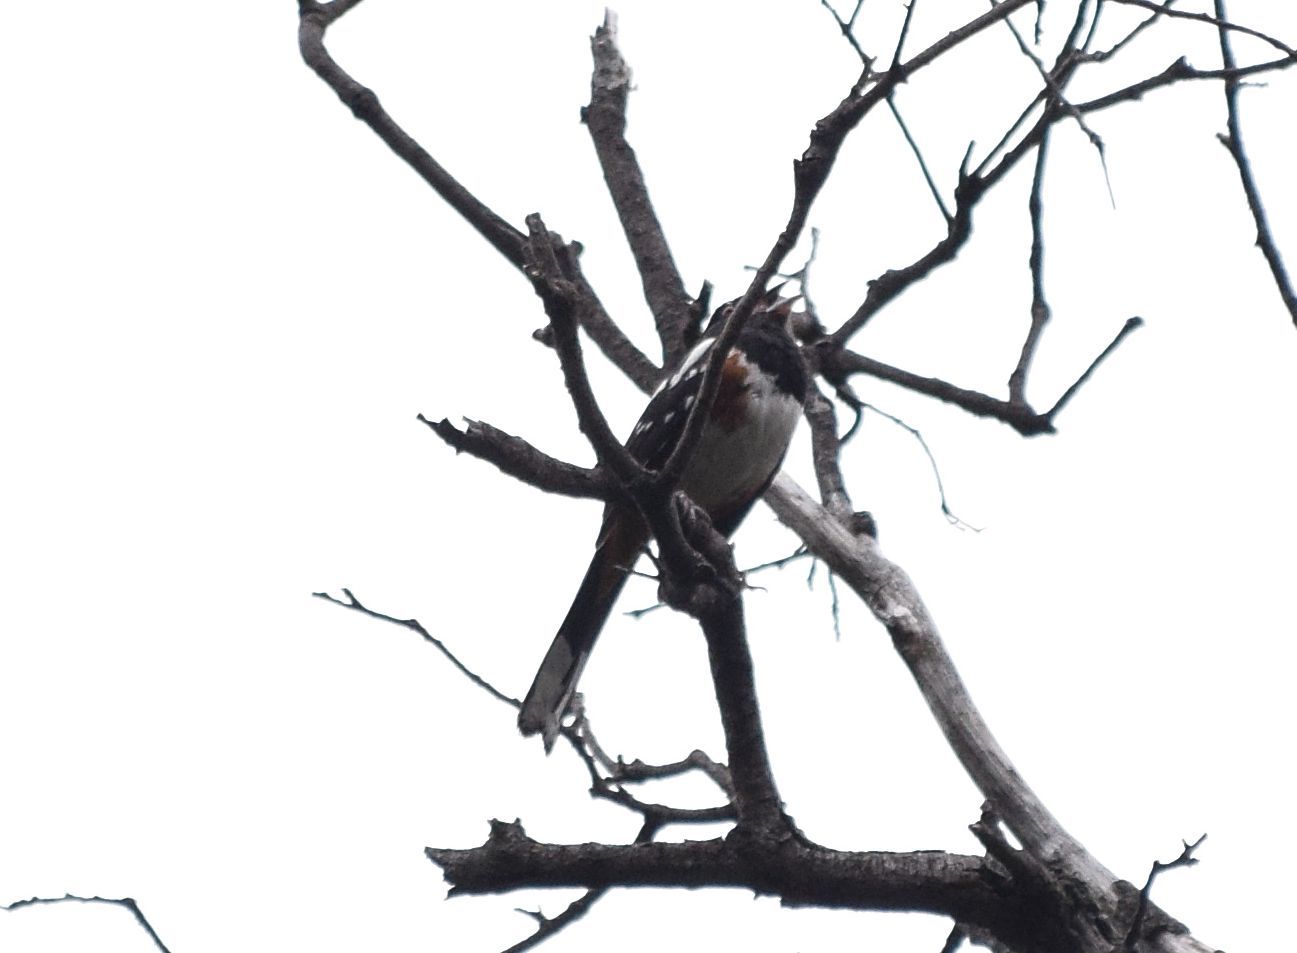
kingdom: Animalia
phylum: Chordata
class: Aves
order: Passeriformes
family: Passerellidae
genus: Pipilo
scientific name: Pipilo maculatus
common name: Spotted towhee
